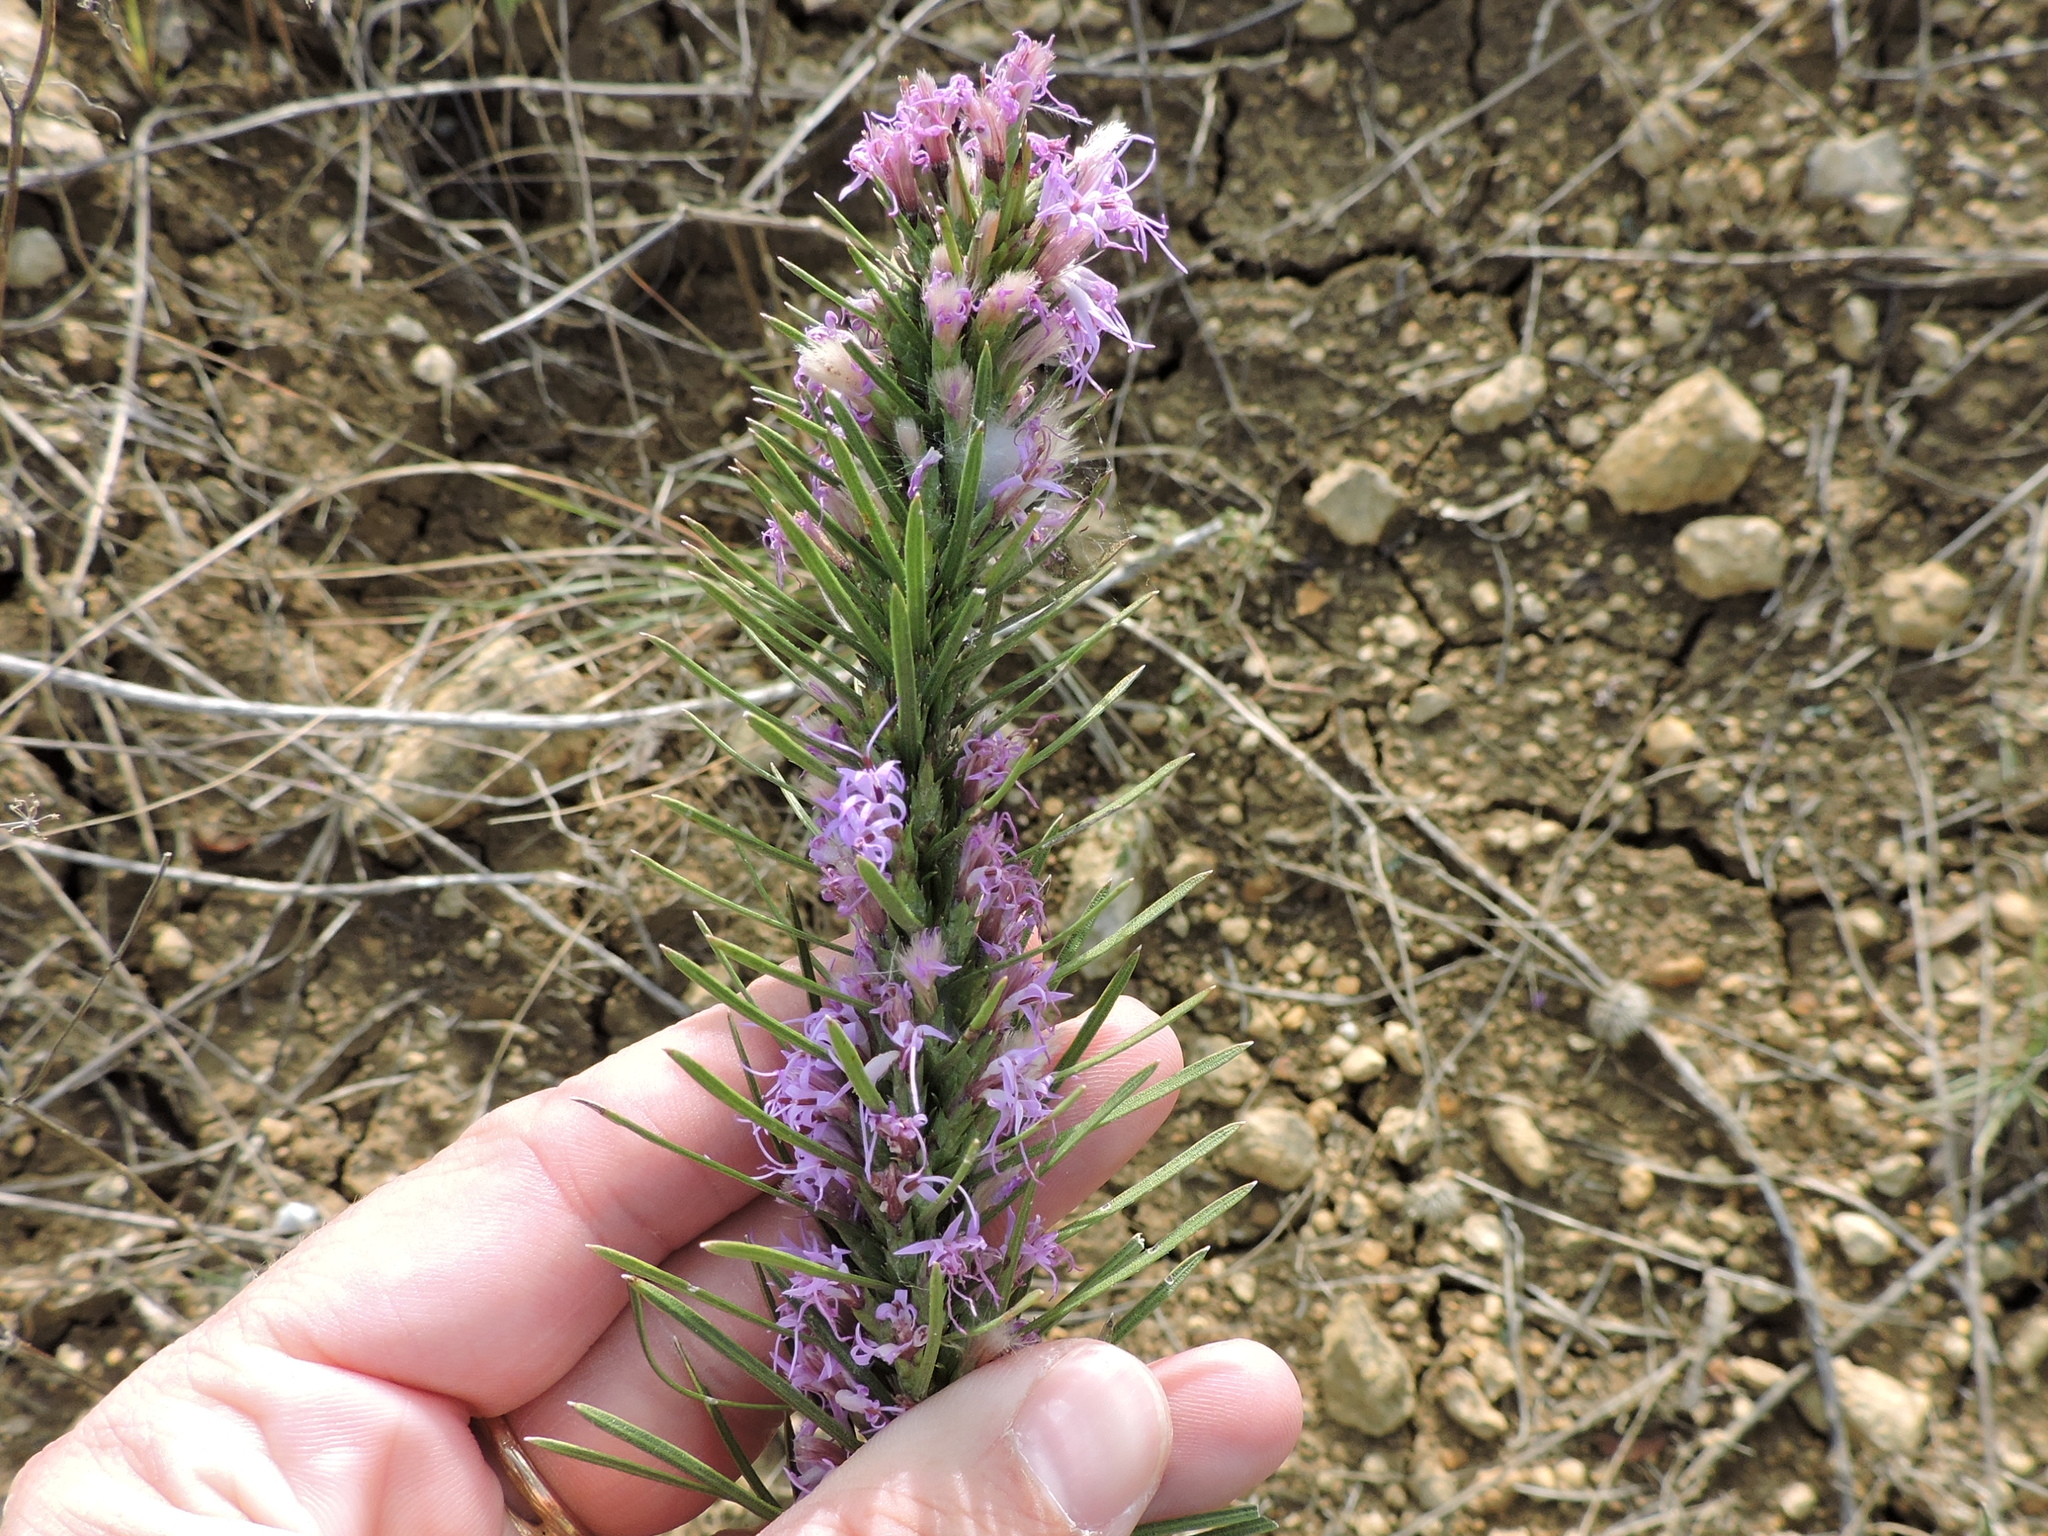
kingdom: Plantae
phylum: Tracheophyta
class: Magnoliopsida
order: Asterales
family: Asteraceae
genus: Liatris
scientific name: Liatris punctata
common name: Dotted gayfeather
